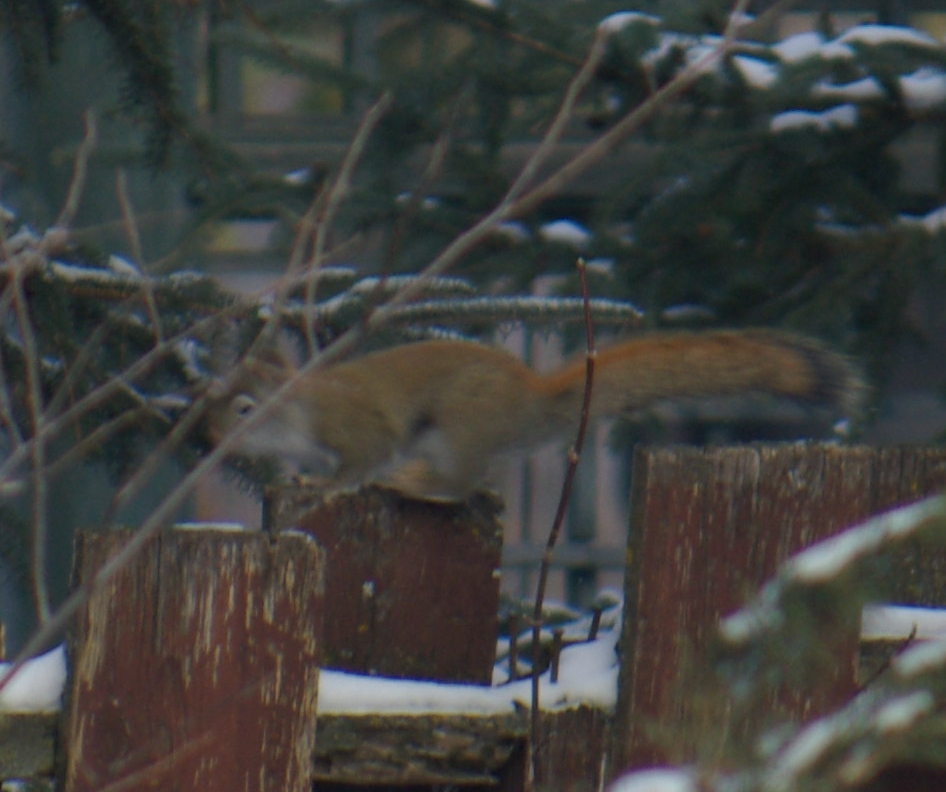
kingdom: Animalia
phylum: Chordata
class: Mammalia
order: Rodentia
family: Sciuridae
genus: Tamiasciurus
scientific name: Tamiasciurus hudsonicus
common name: Red squirrel
